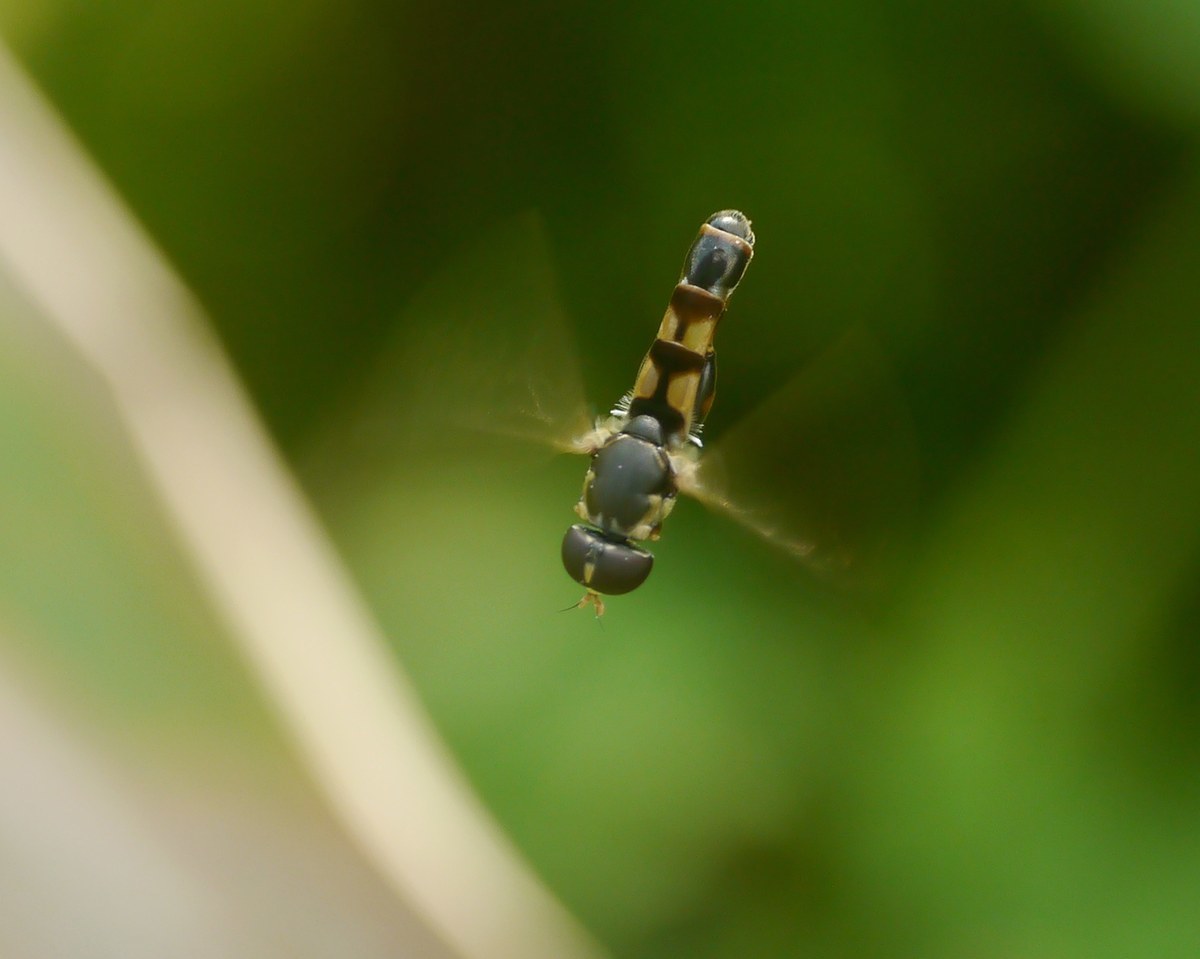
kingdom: Animalia
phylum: Arthropoda
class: Insecta
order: Diptera
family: Syrphidae
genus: Syritta
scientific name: Syritta pipiens
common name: Hover fly
